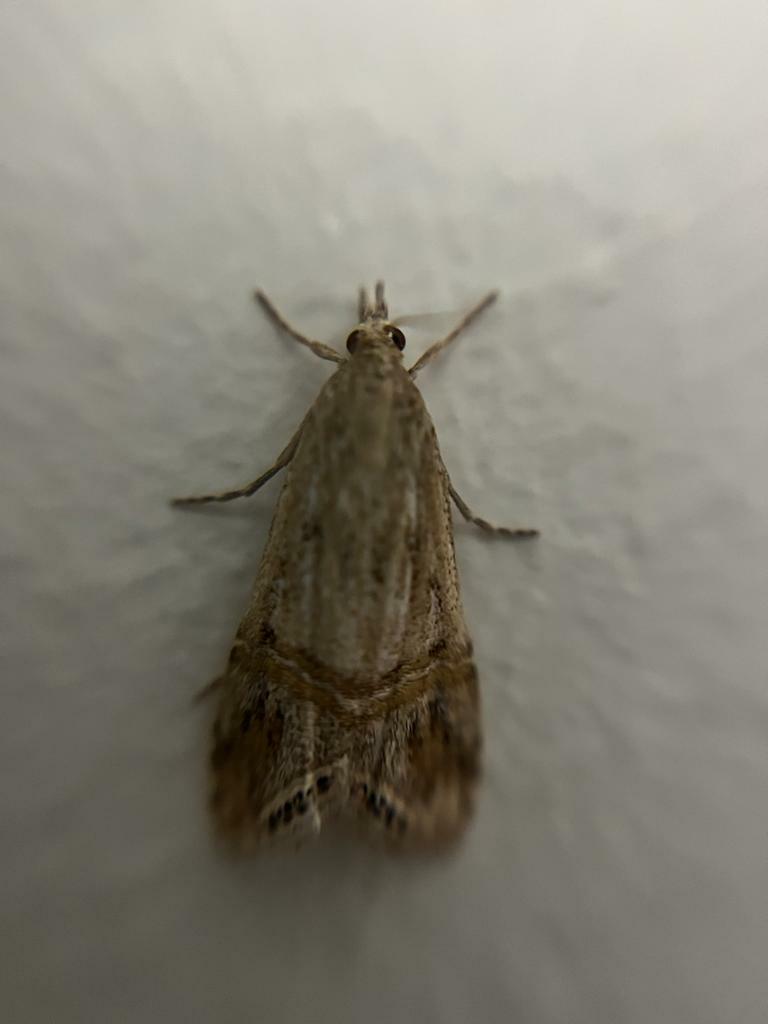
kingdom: Animalia
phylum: Arthropoda
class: Insecta
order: Lepidoptera
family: Crambidae
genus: Euchromius
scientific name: Euchromius cambridgei
